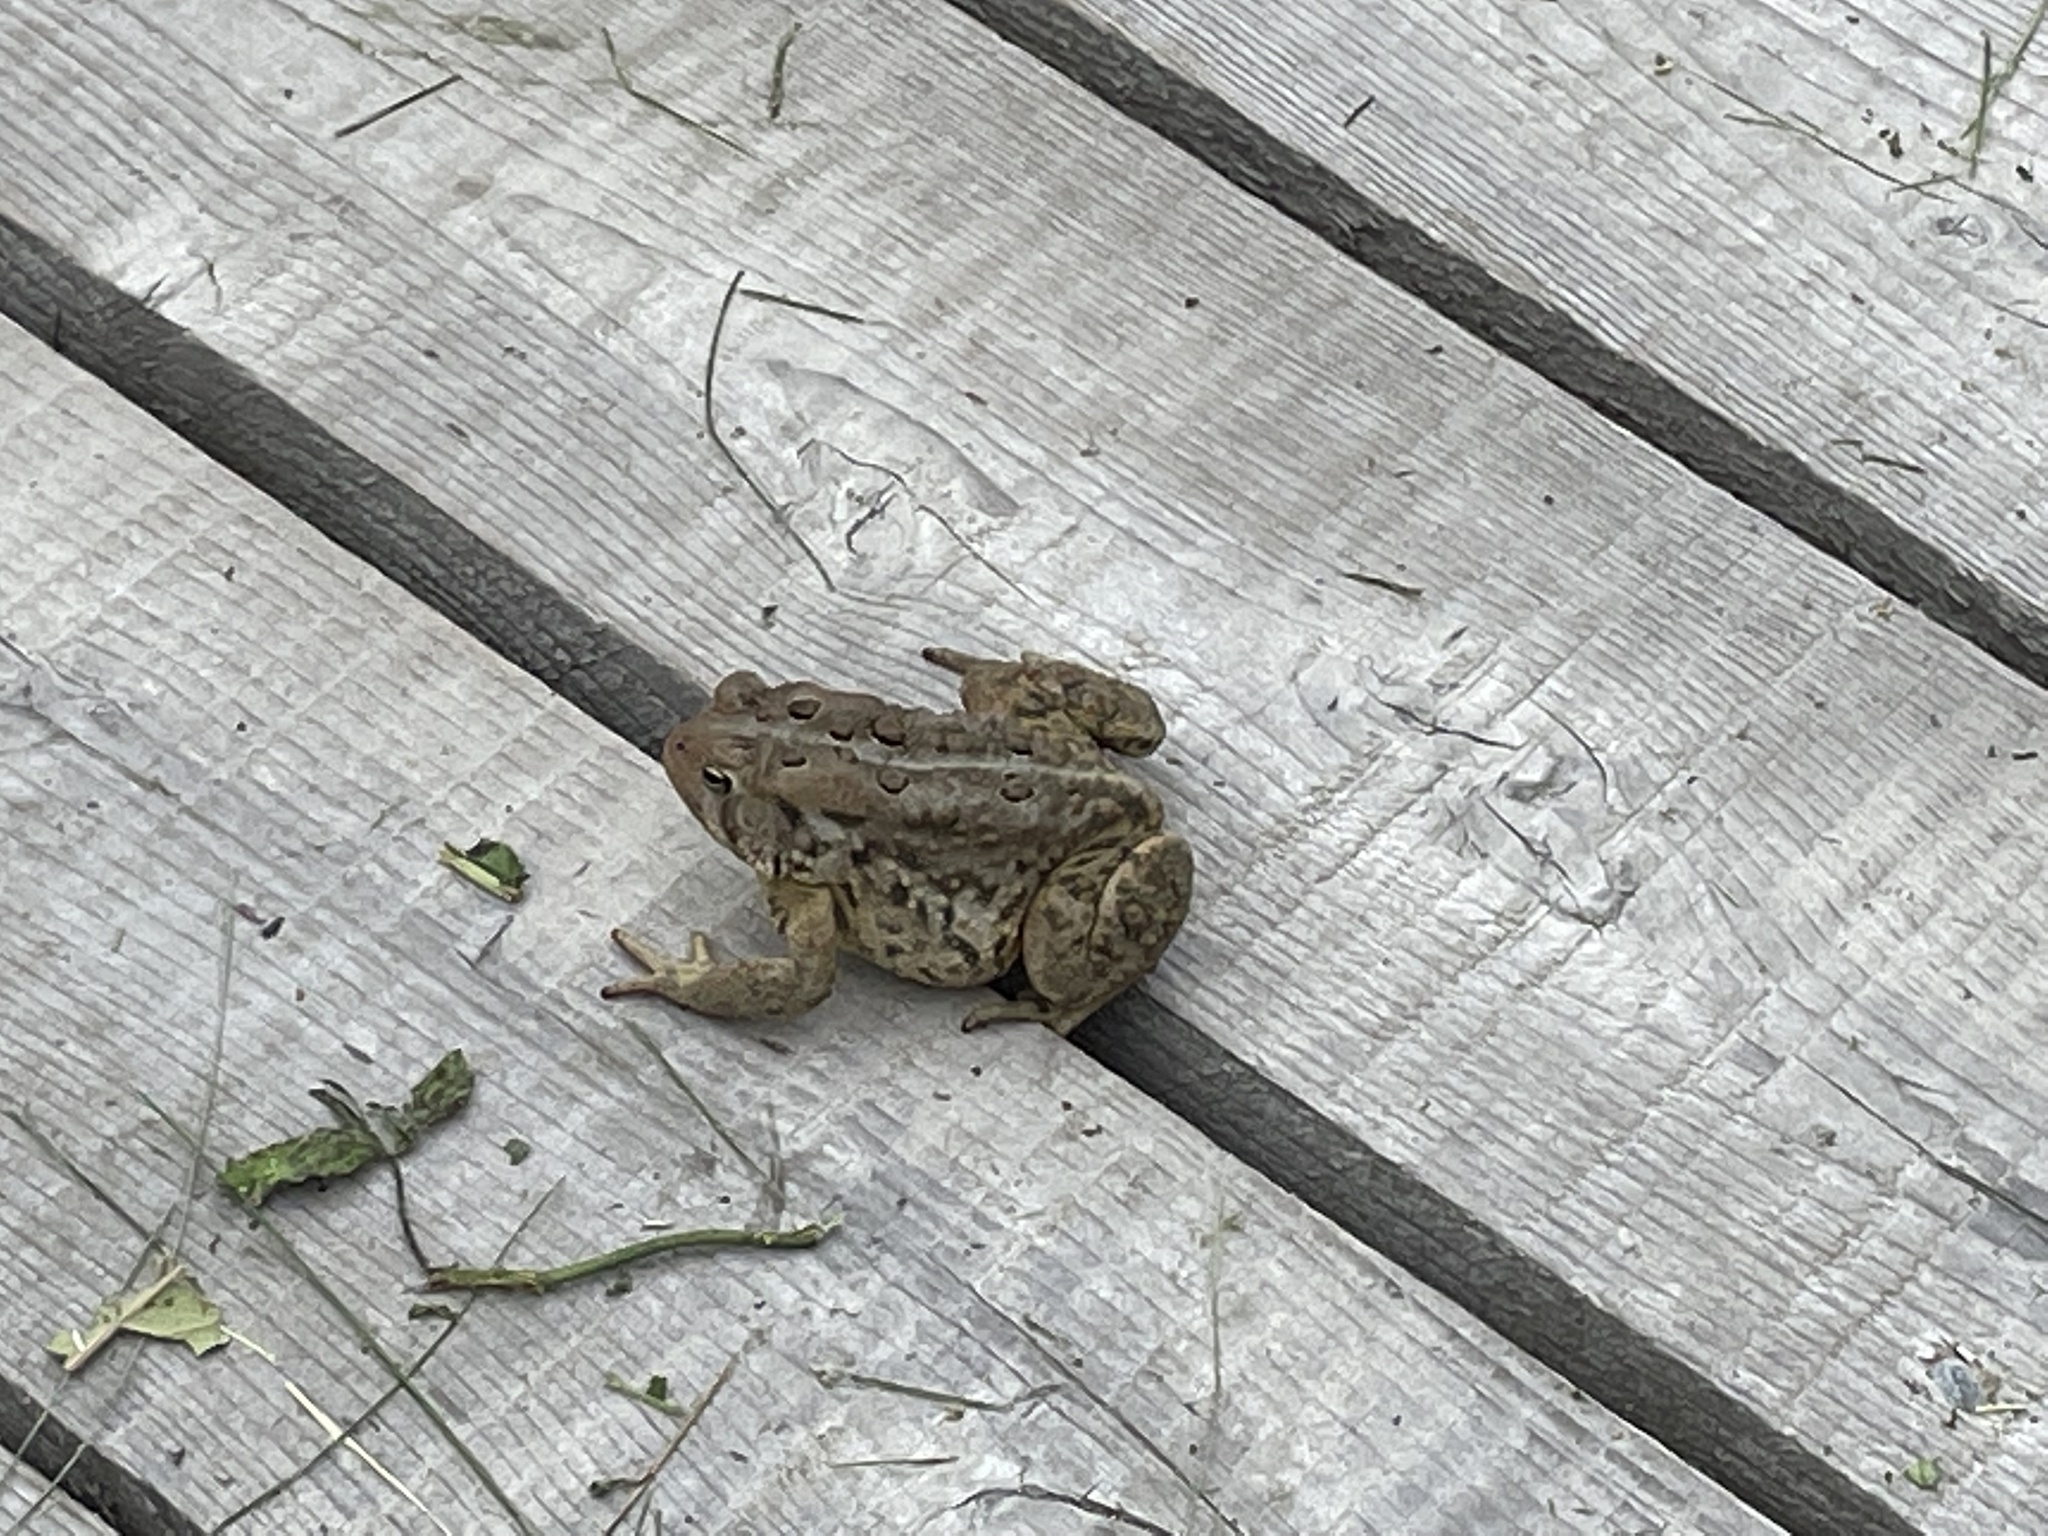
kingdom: Animalia
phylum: Chordata
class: Amphibia
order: Anura
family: Bufonidae
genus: Anaxyrus
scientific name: Anaxyrus americanus
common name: American toad
